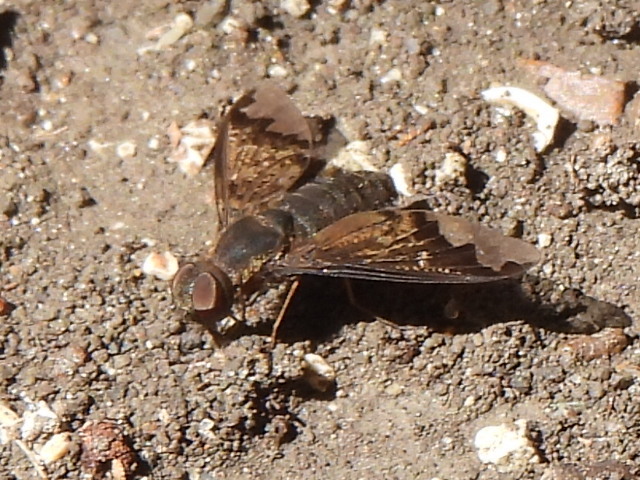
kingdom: Animalia
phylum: Arthropoda
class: Insecta
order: Diptera
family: Bombyliidae
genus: Hemipenthes
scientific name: Hemipenthes sinuosus
